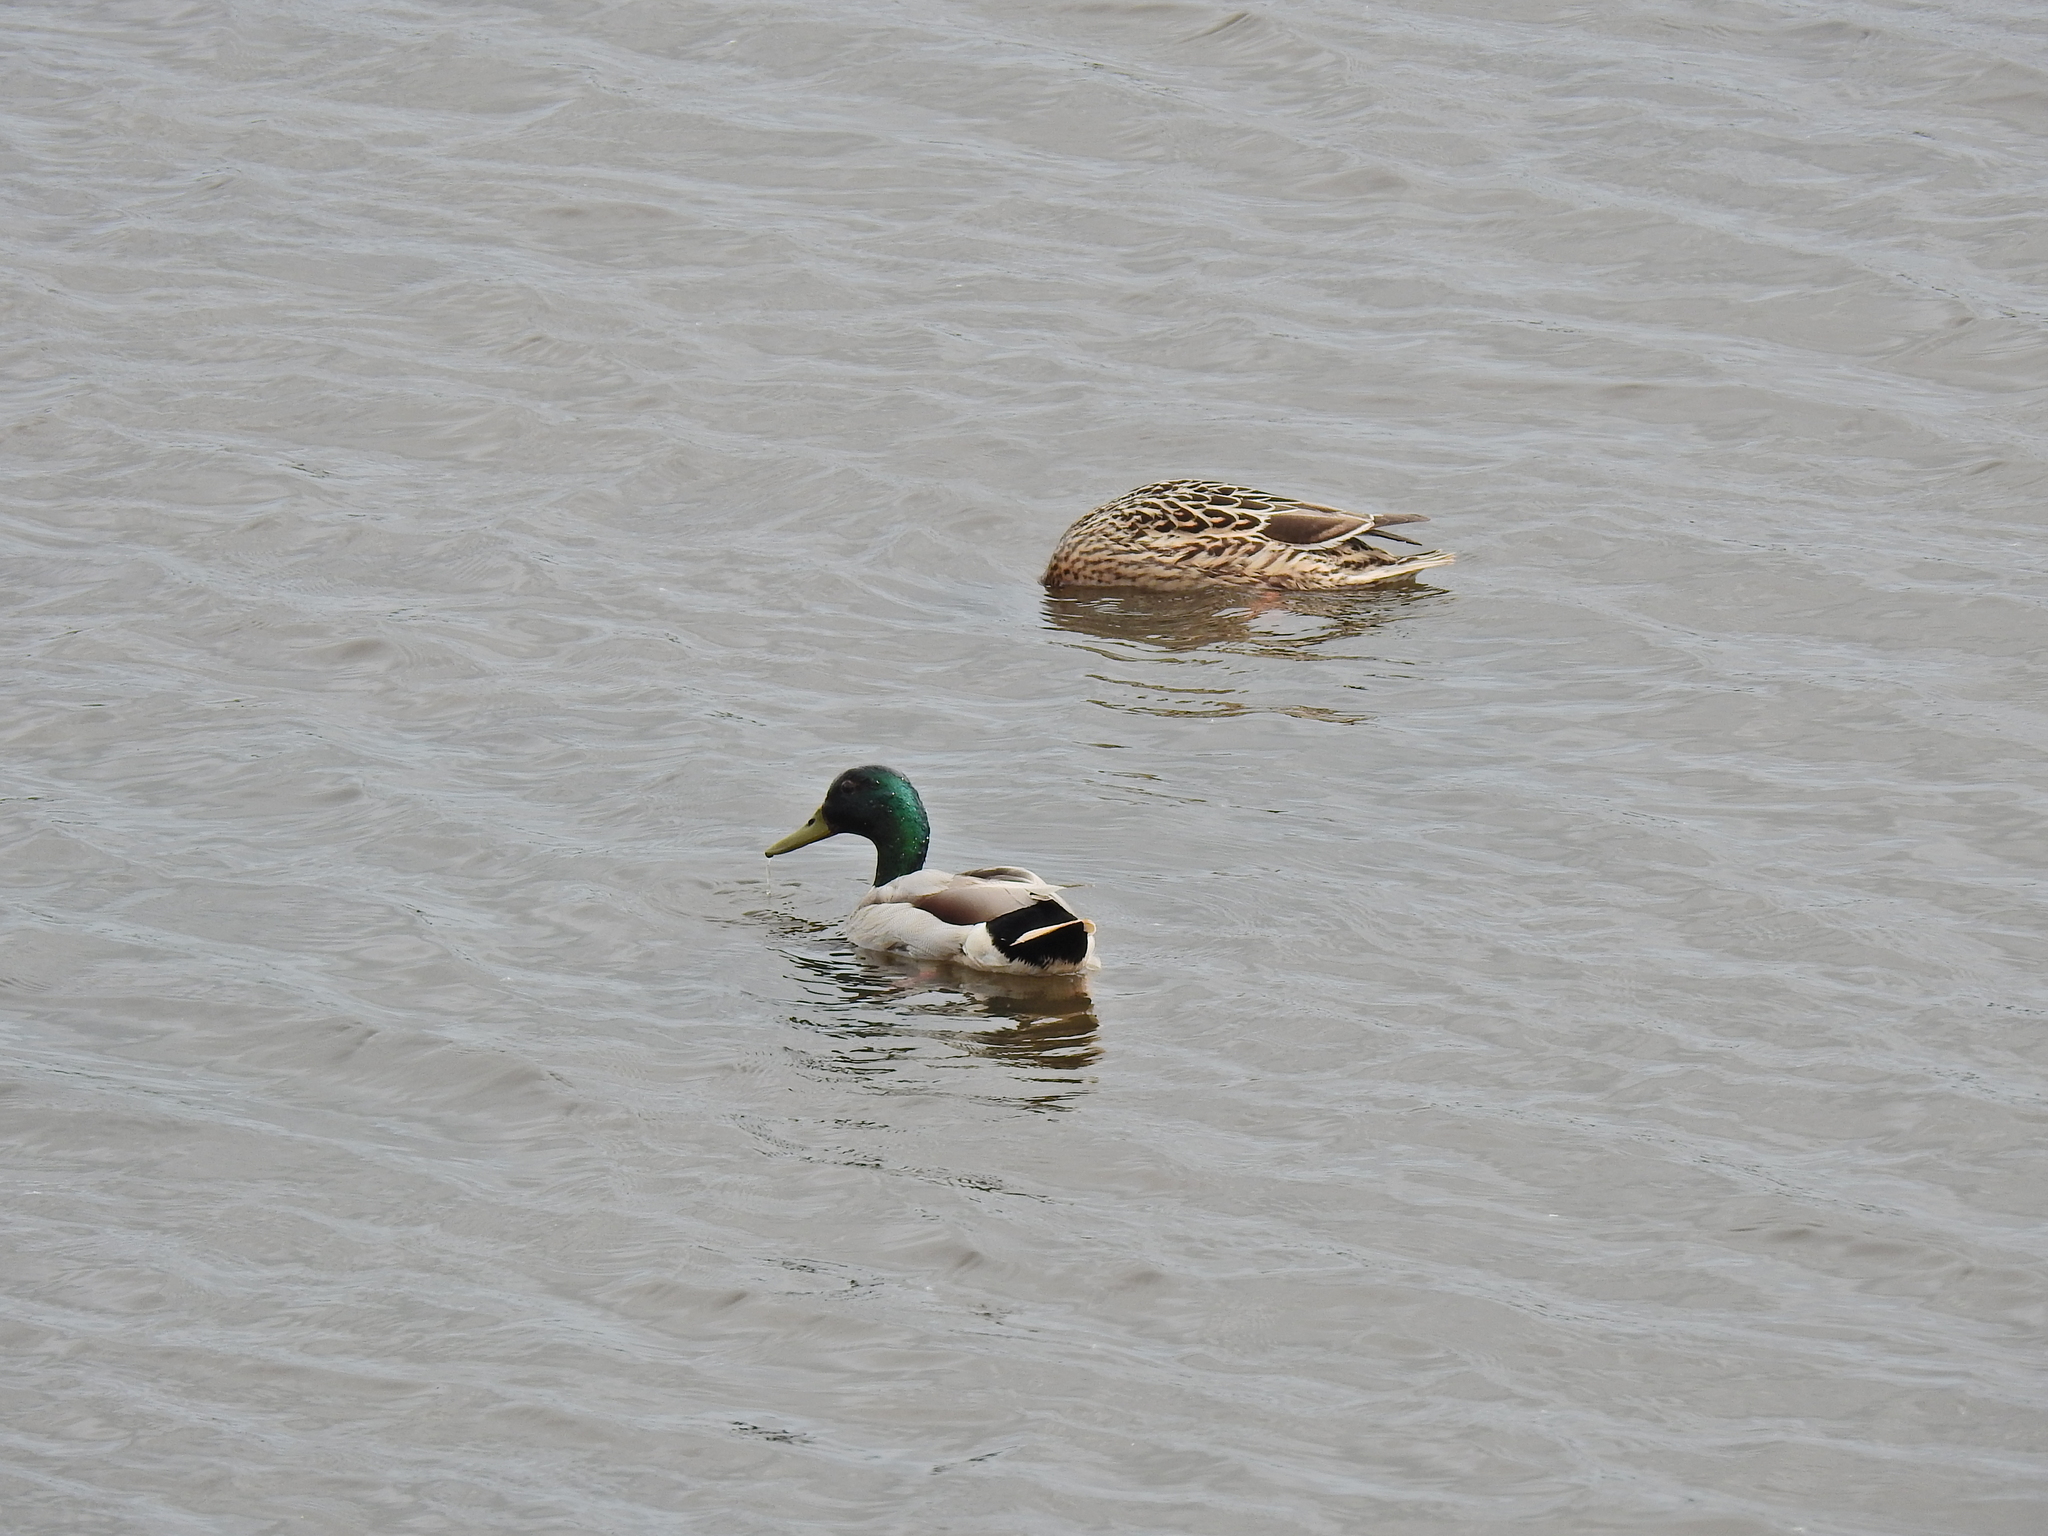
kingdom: Animalia
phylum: Chordata
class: Aves
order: Anseriformes
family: Anatidae
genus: Anas
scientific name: Anas platyrhynchos
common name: Mallard
